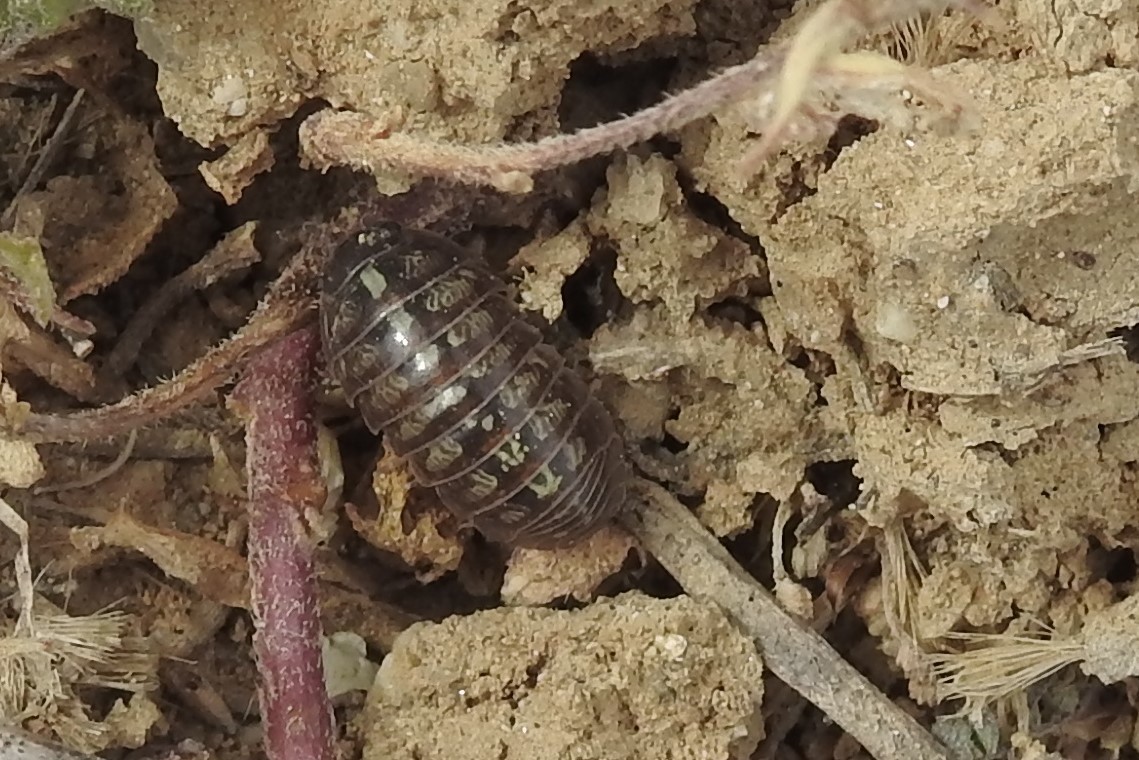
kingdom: Animalia
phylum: Arthropoda
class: Malacostraca
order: Isopoda
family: Armadillidiidae
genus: Armadillidium
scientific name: Armadillidium vulgare
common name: Common pill woodlouse
